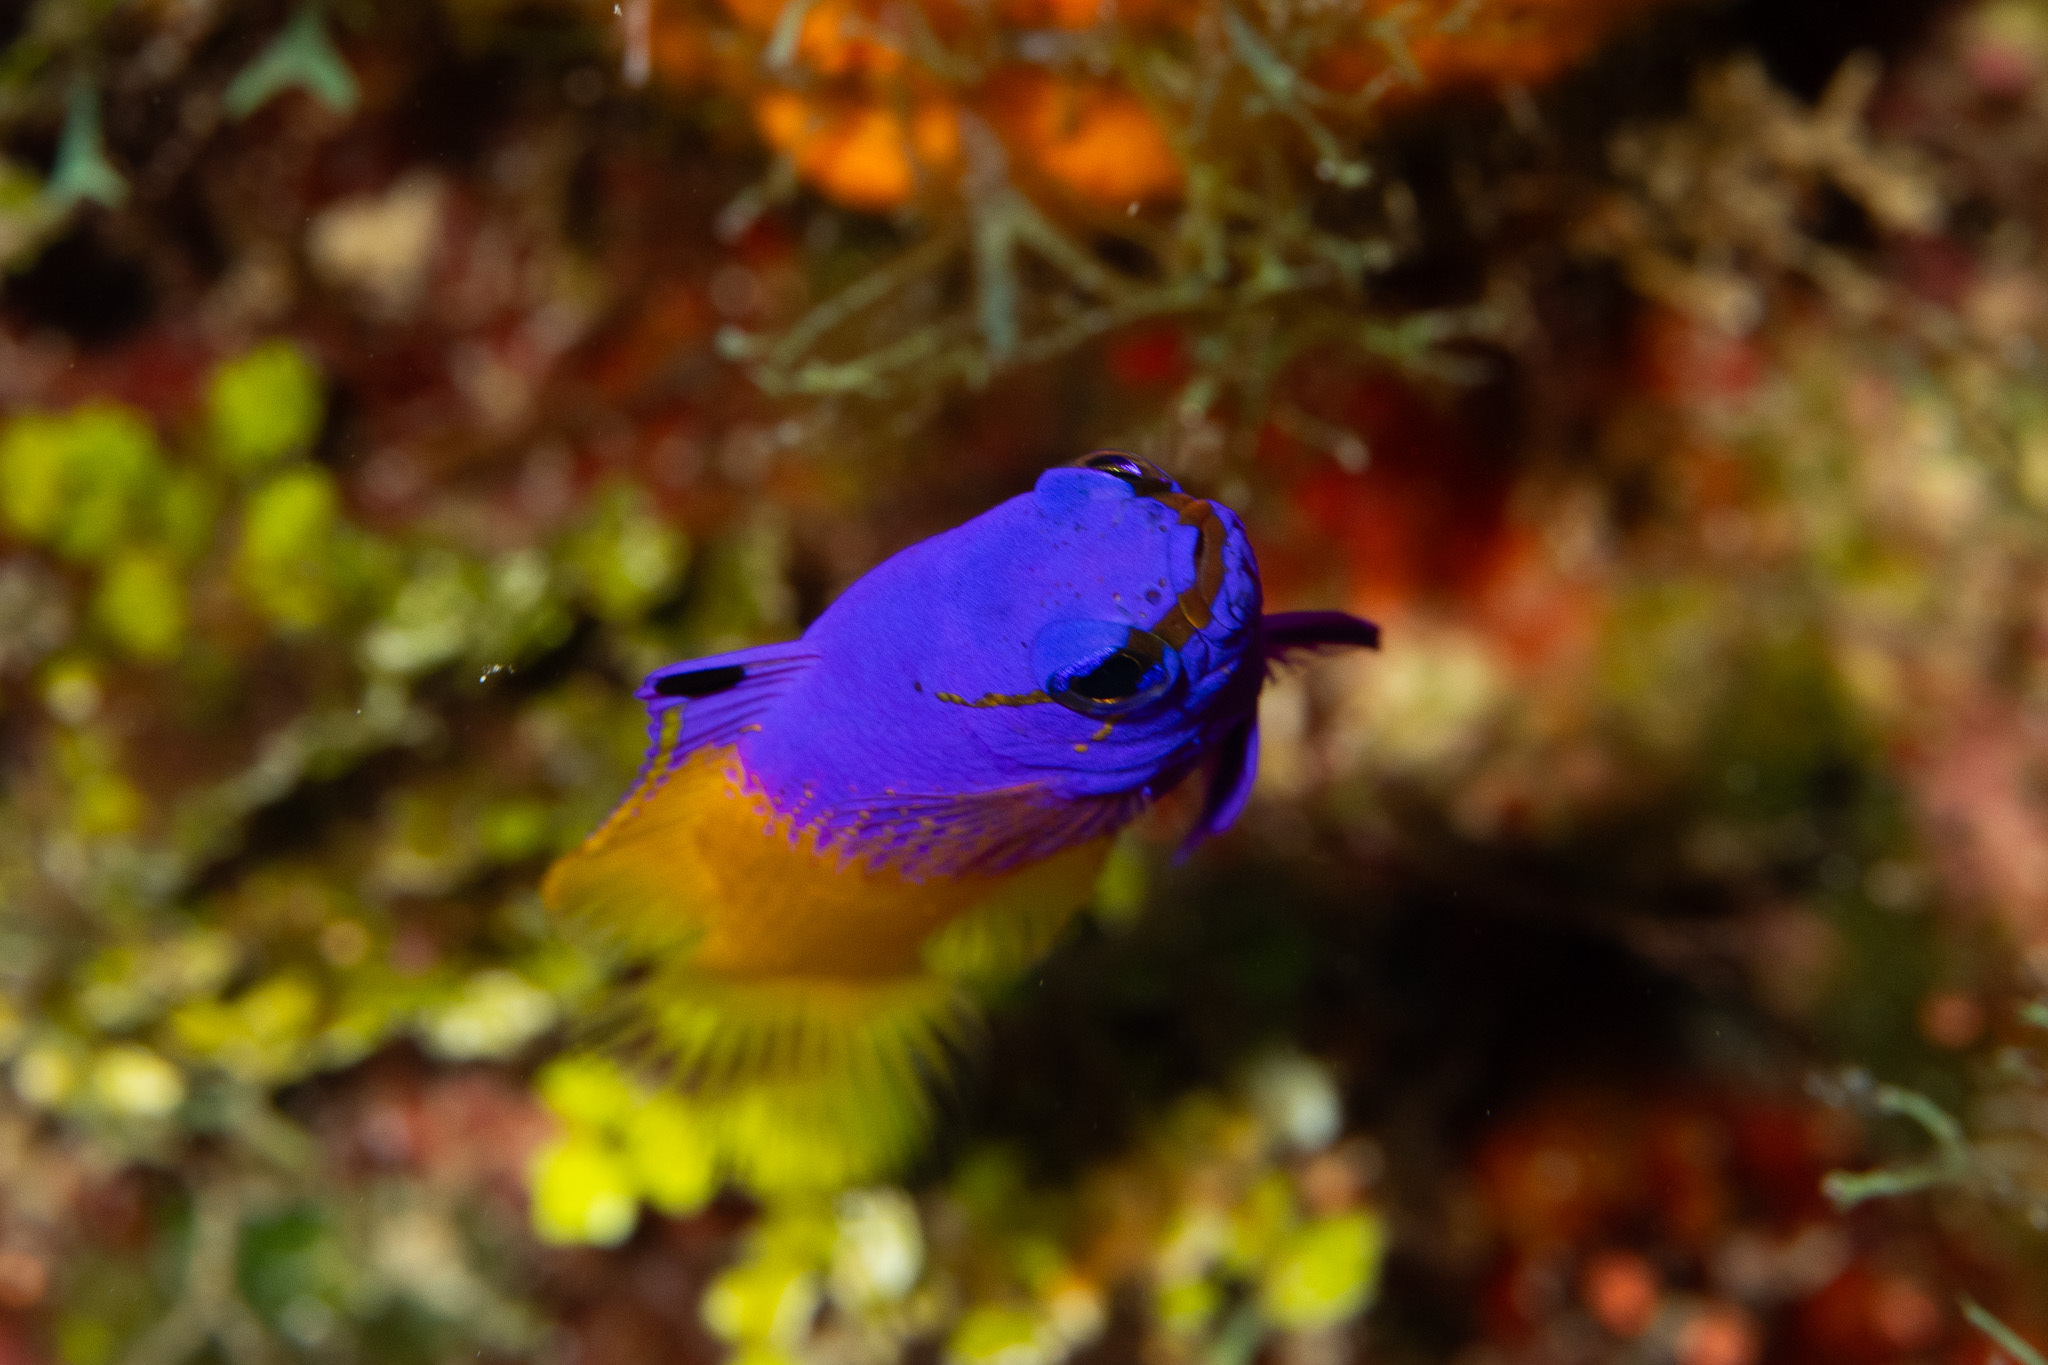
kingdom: Animalia
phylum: Chordata
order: Perciformes
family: Grammatidae
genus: Gramma
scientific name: Gramma loreto
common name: Fairy basslet
